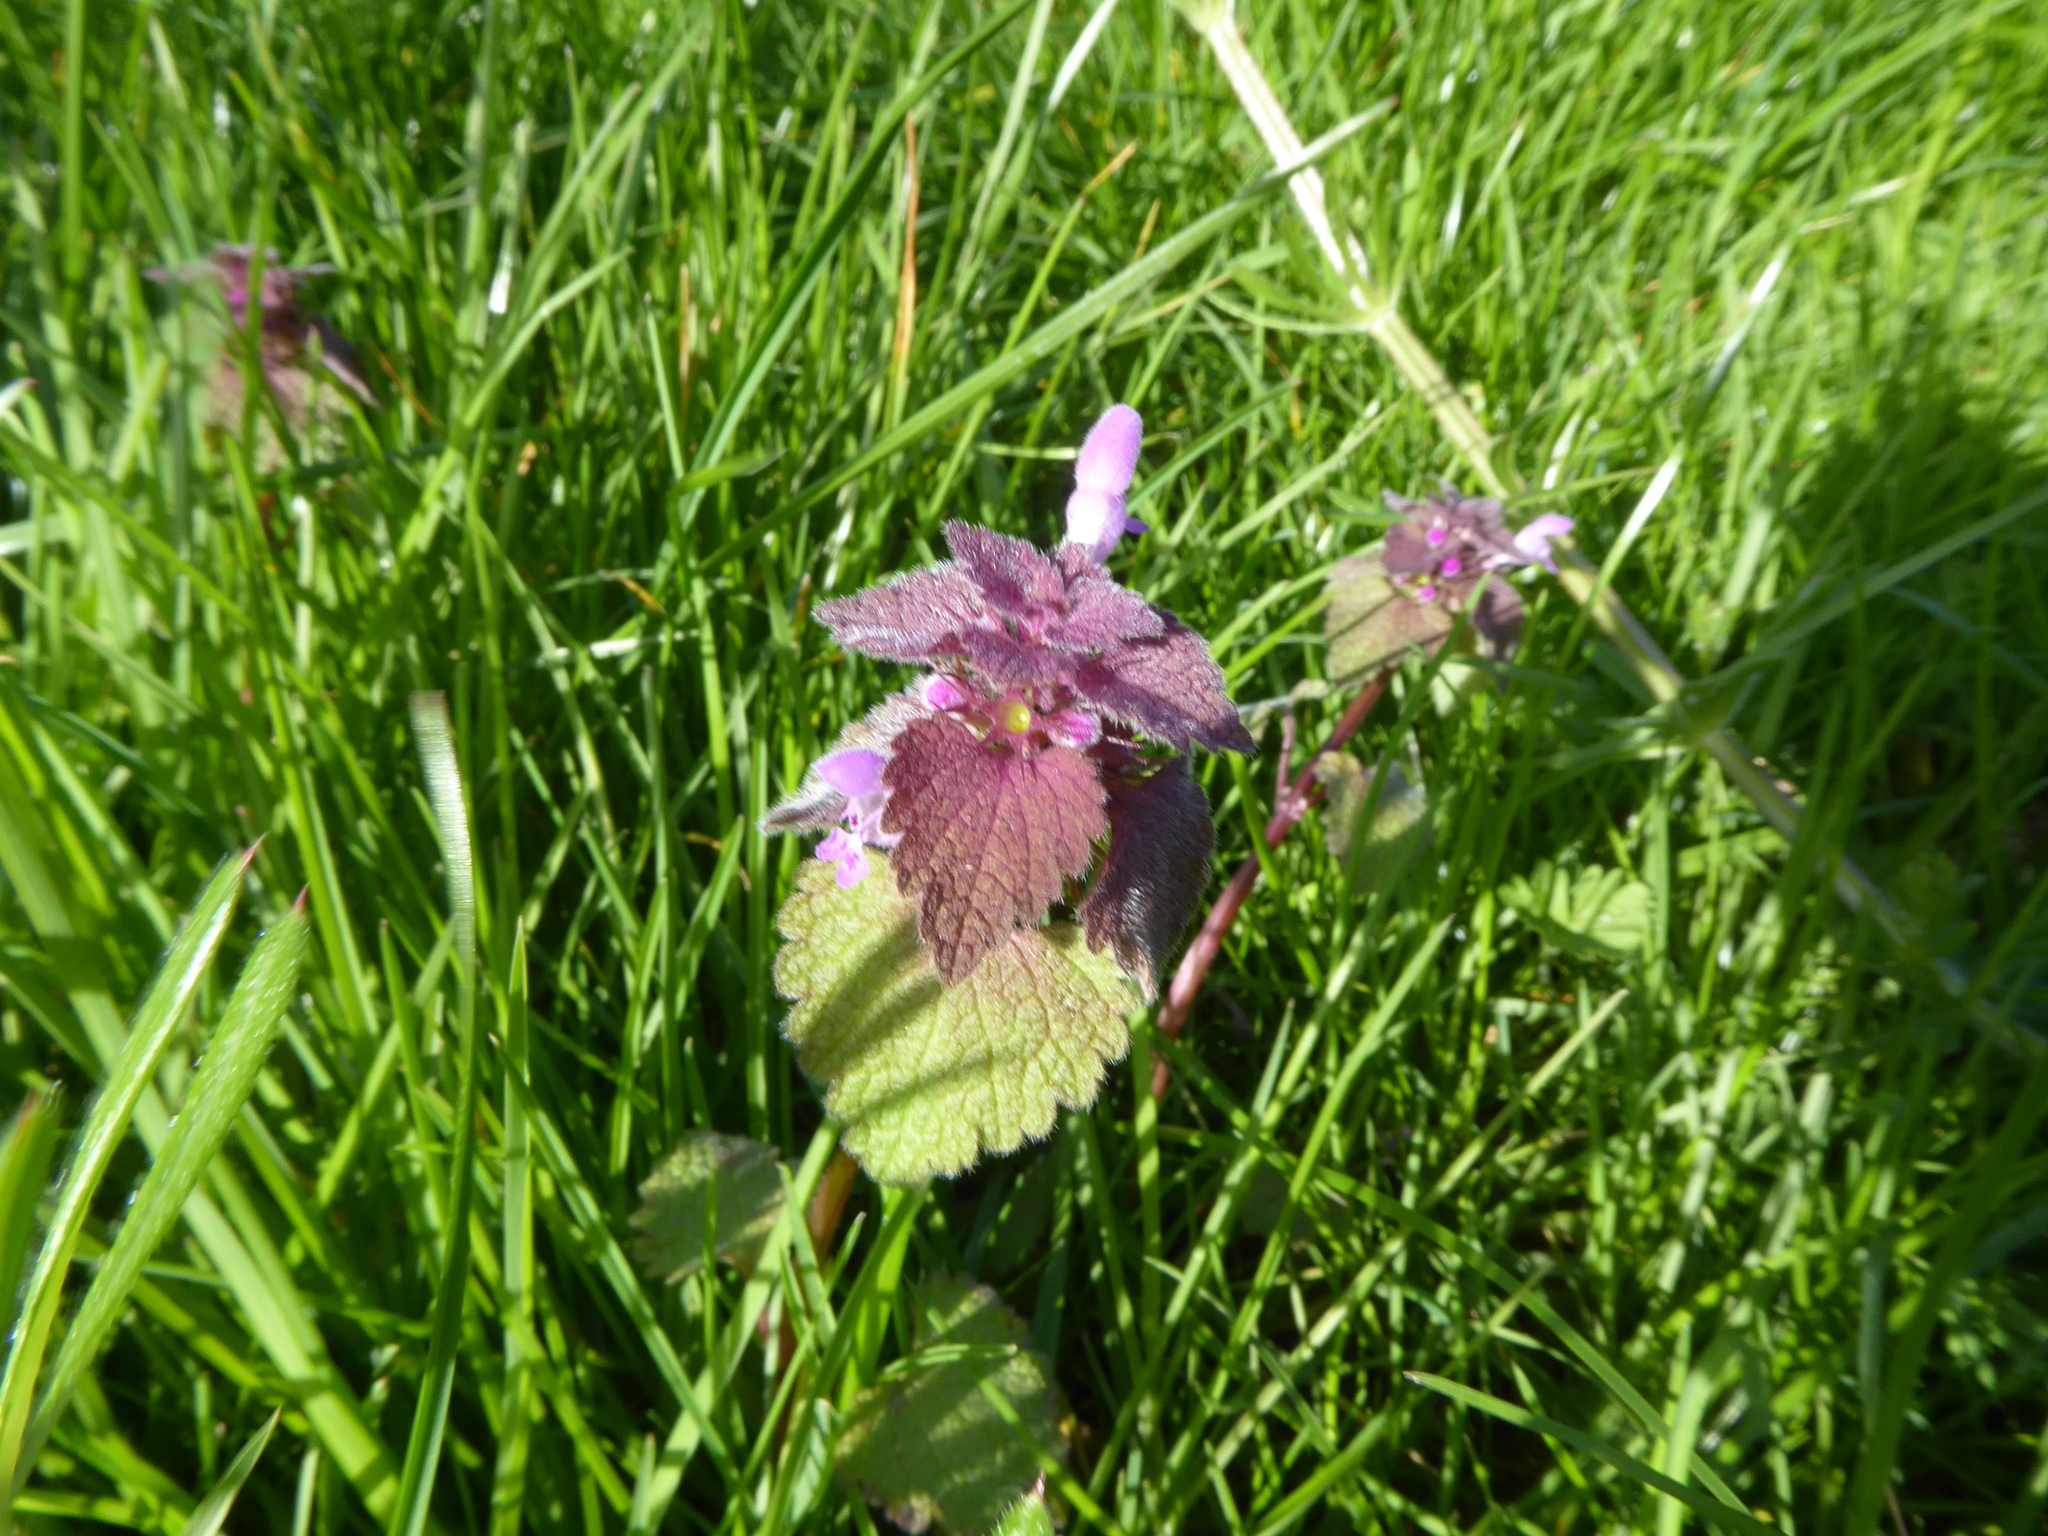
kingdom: Plantae
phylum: Tracheophyta
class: Magnoliopsida
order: Lamiales
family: Lamiaceae
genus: Lamium
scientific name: Lamium purpureum
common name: Red dead-nettle
